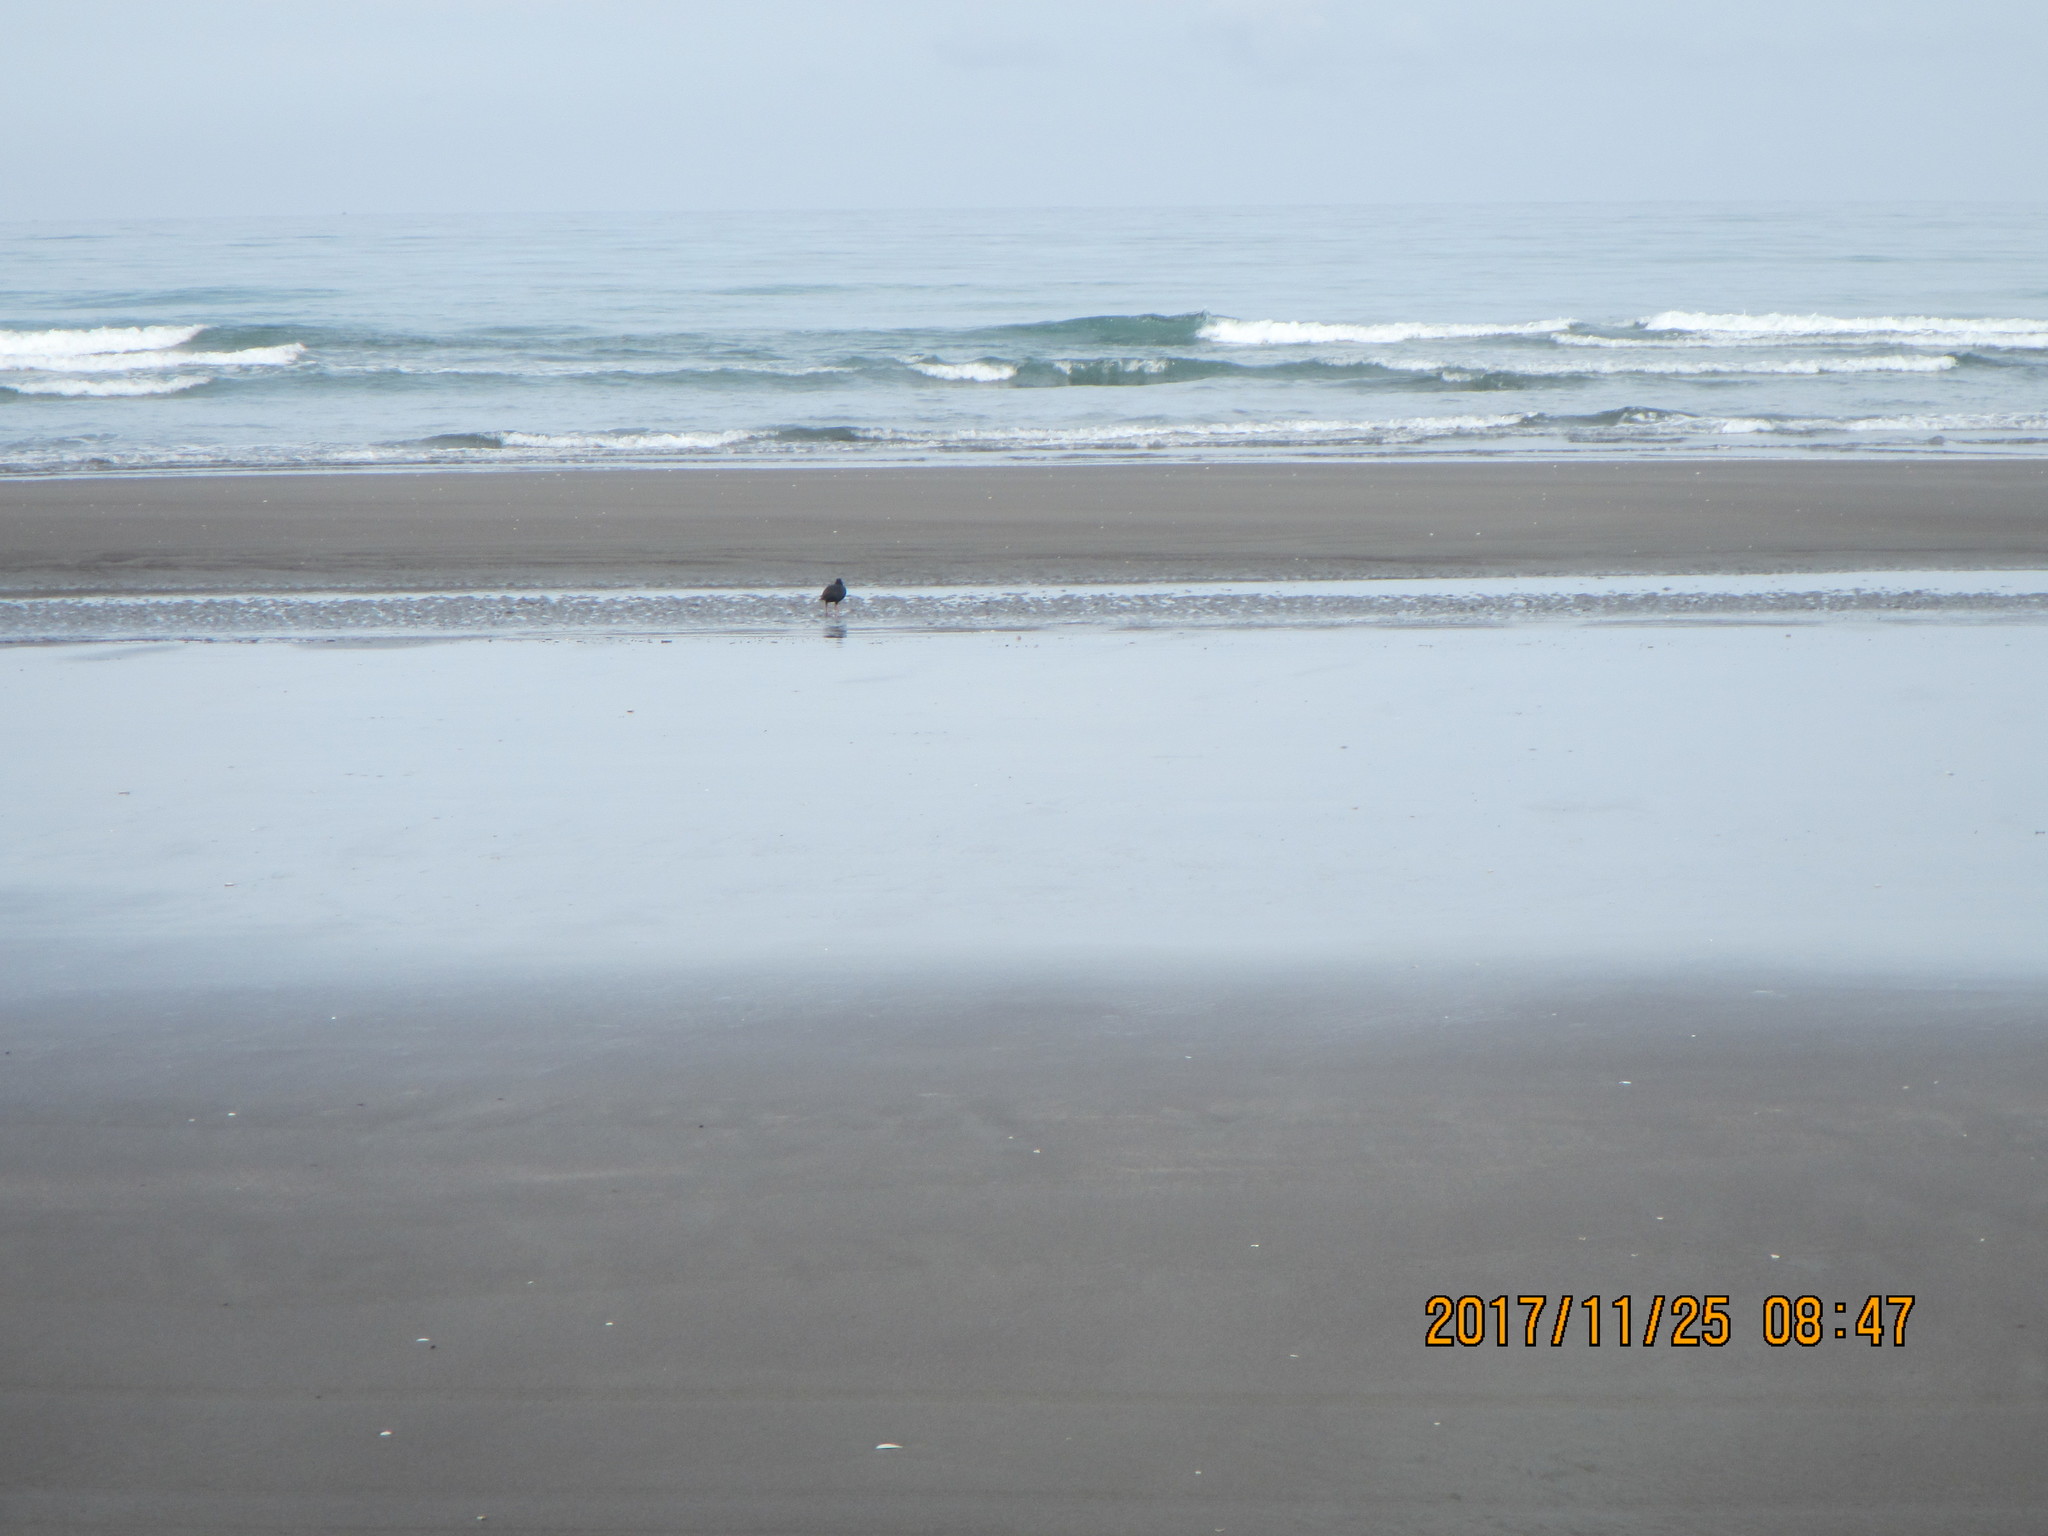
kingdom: Animalia
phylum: Chordata
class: Aves
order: Charadriiformes
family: Haematopodidae
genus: Haematopus
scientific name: Haematopus unicolor
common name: Variable oystercatcher
